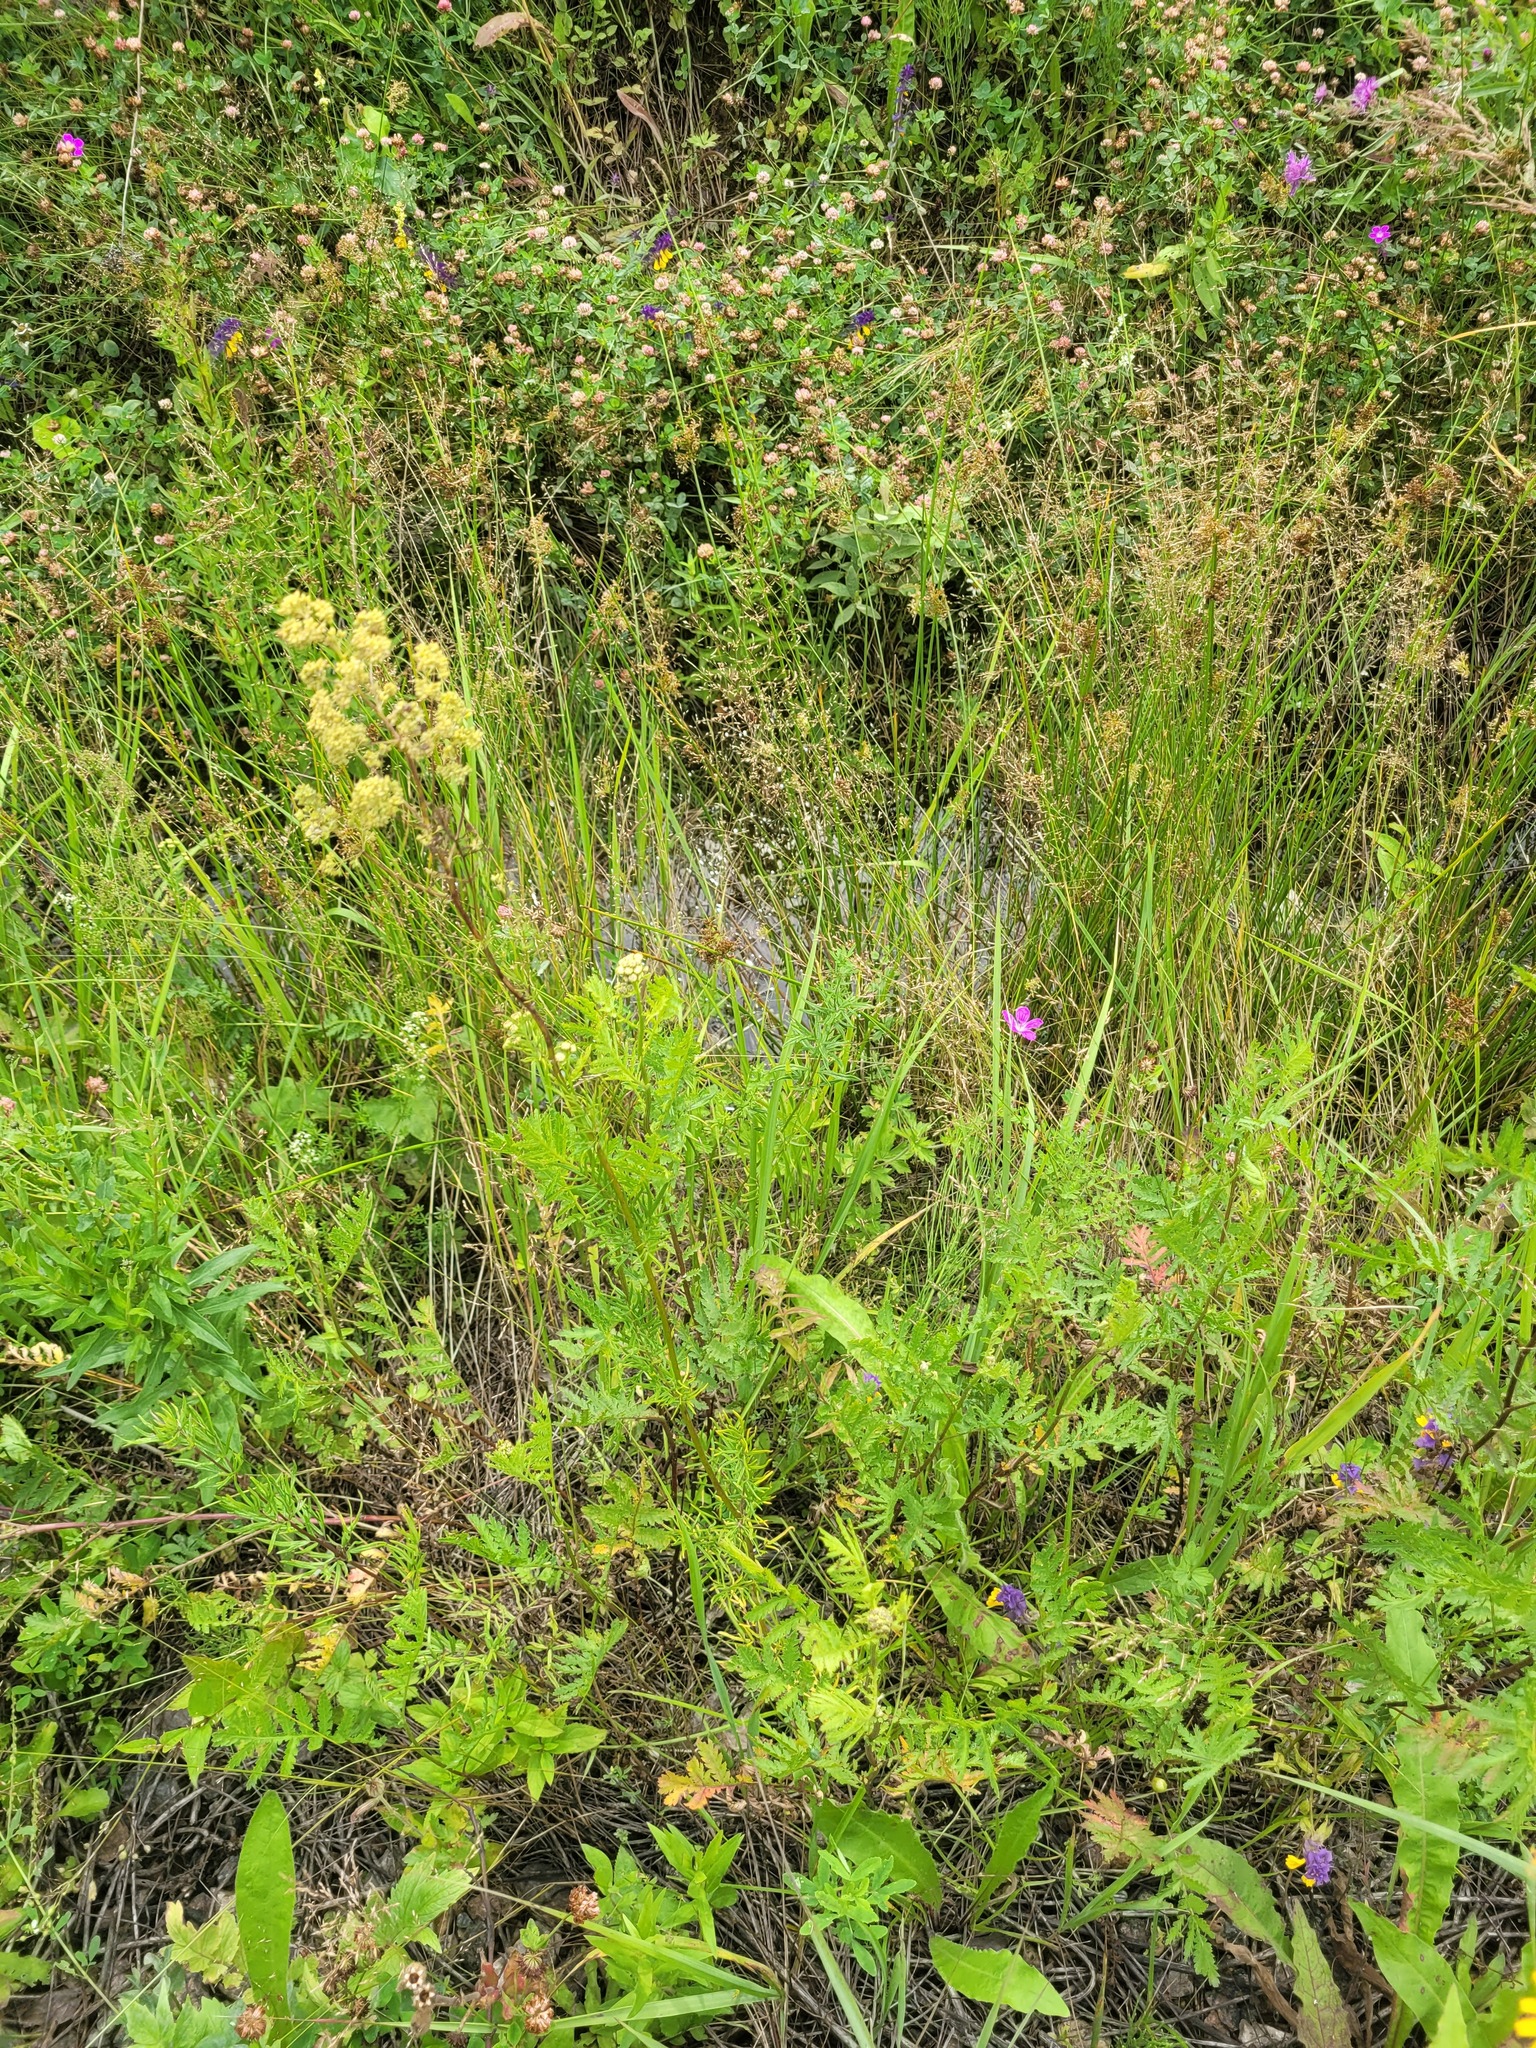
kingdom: Plantae
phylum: Tracheophyta
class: Magnoliopsida
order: Ranunculales
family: Ranunculaceae
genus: Thalictrum
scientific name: Thalictrum lucidum
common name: Shining meadow-rue
